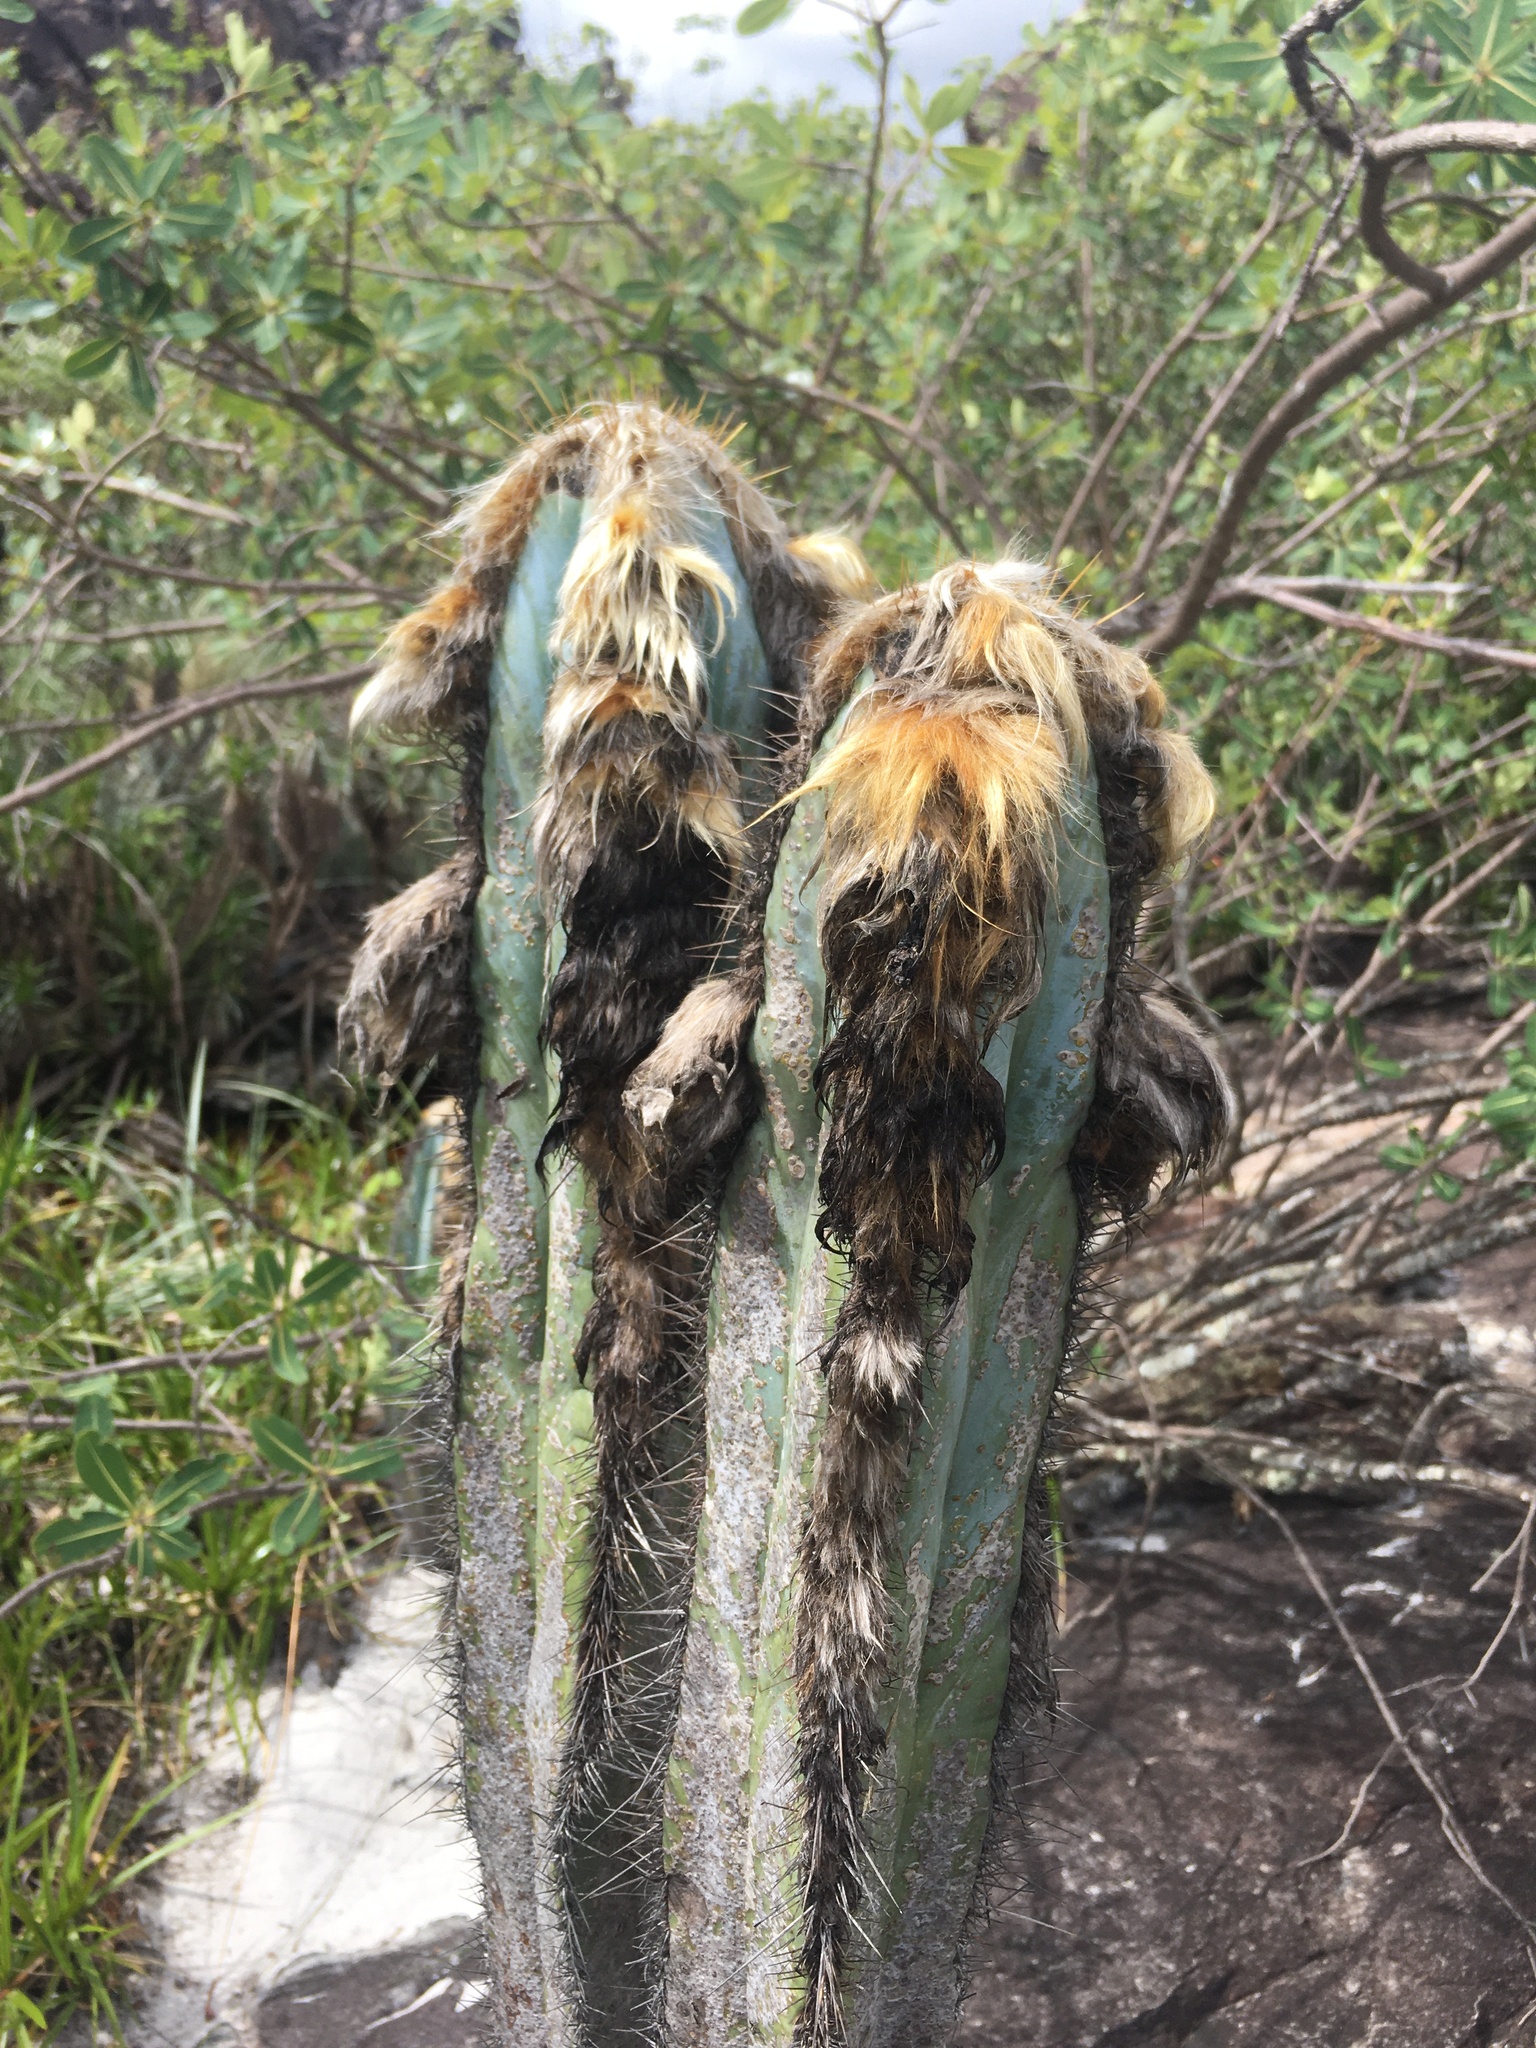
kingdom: Plantae
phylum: Tracheophyta
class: Magnoliopsida
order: Caryophyllales
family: Cactaceae
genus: Pilosocereus
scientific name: Pilosocereus fulvilanatus
